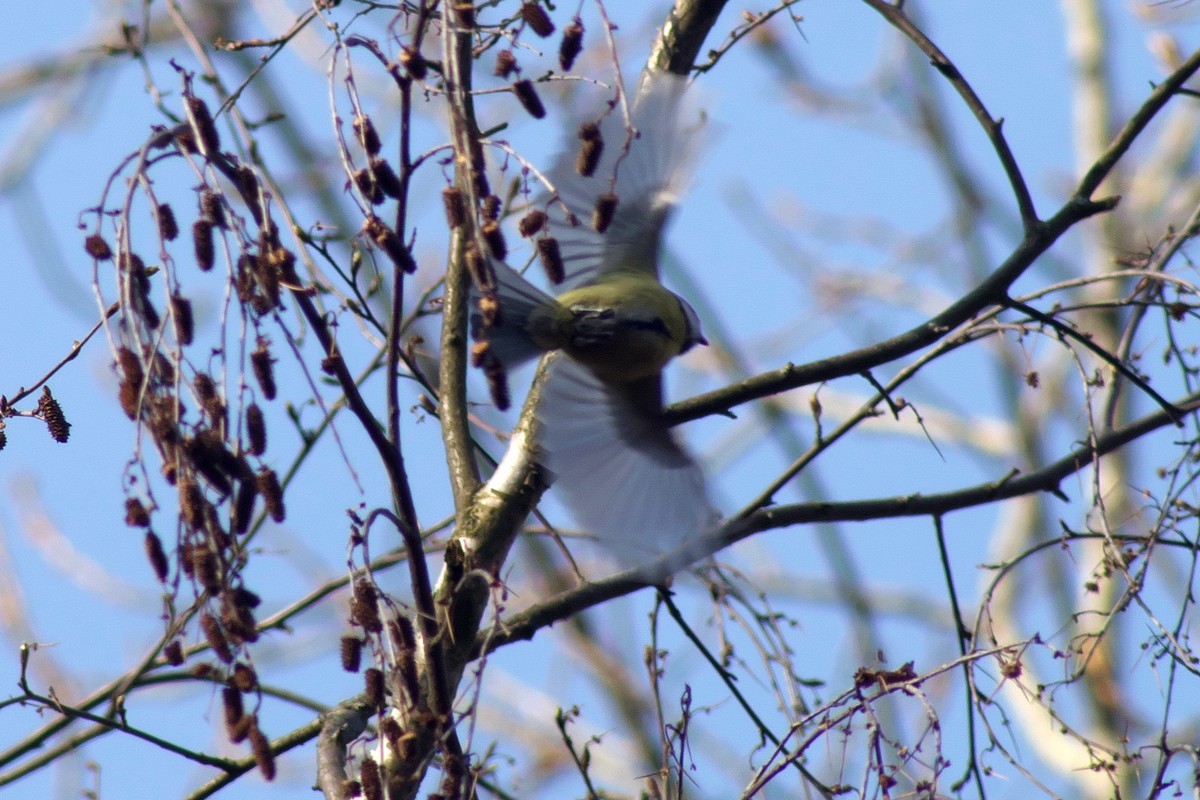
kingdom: Animalia
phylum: Chordata
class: Aves
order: Passeriformes
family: Paridae
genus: Cyanistes
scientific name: Cyanistes caeruleus
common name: Eurasian blue tit
